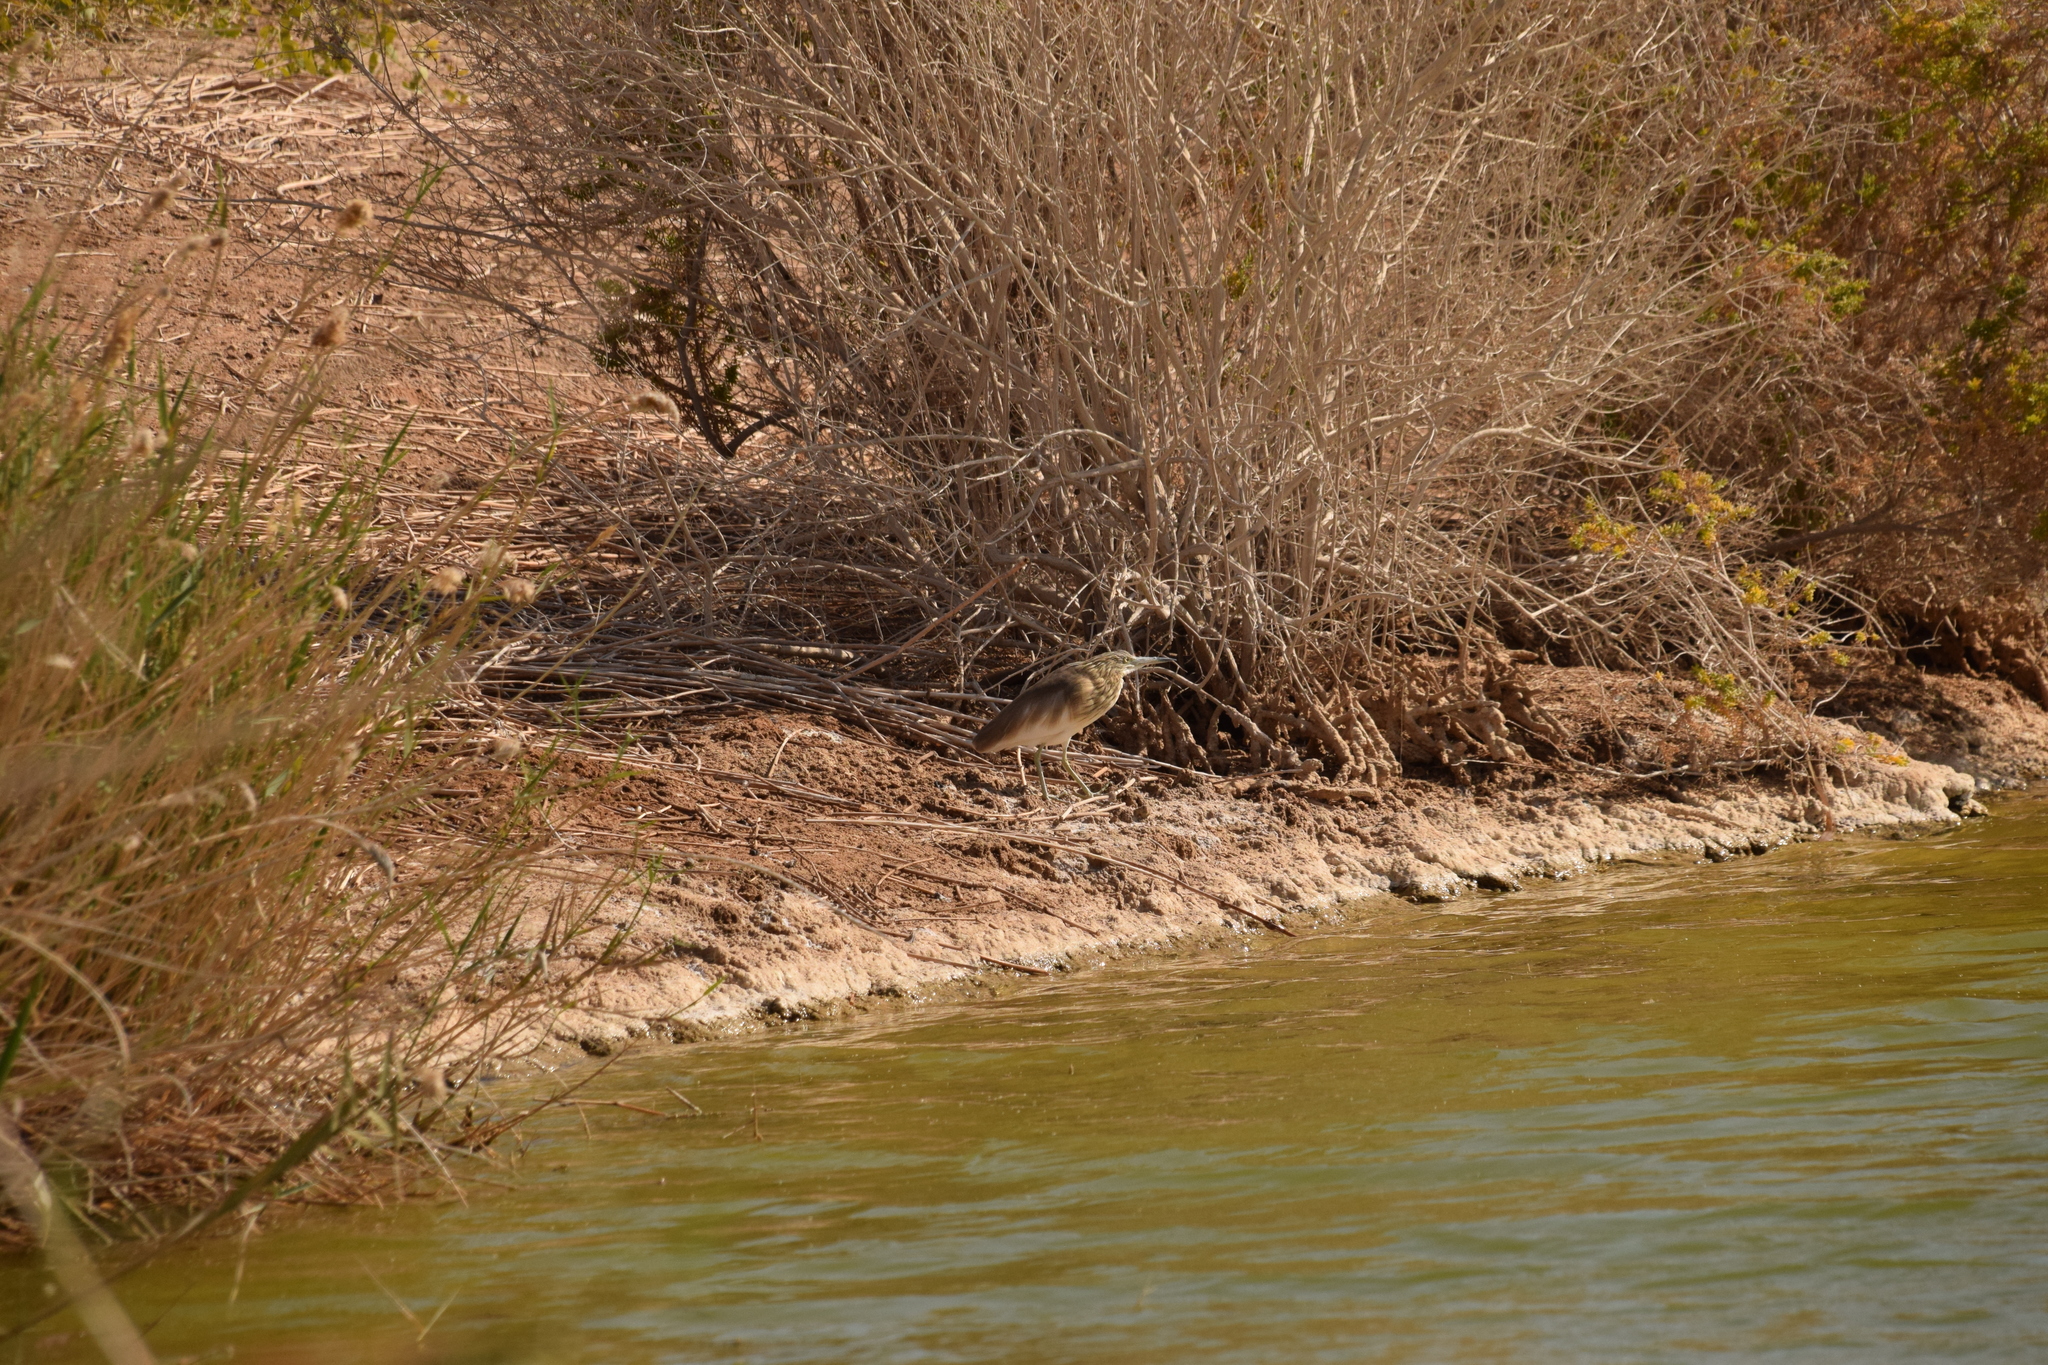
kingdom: Animalia
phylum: Chordata
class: Aves
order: Pelecaniformes
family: Ardeidae
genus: Ardeola
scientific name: Ardeola ralloides
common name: Squacco heron
